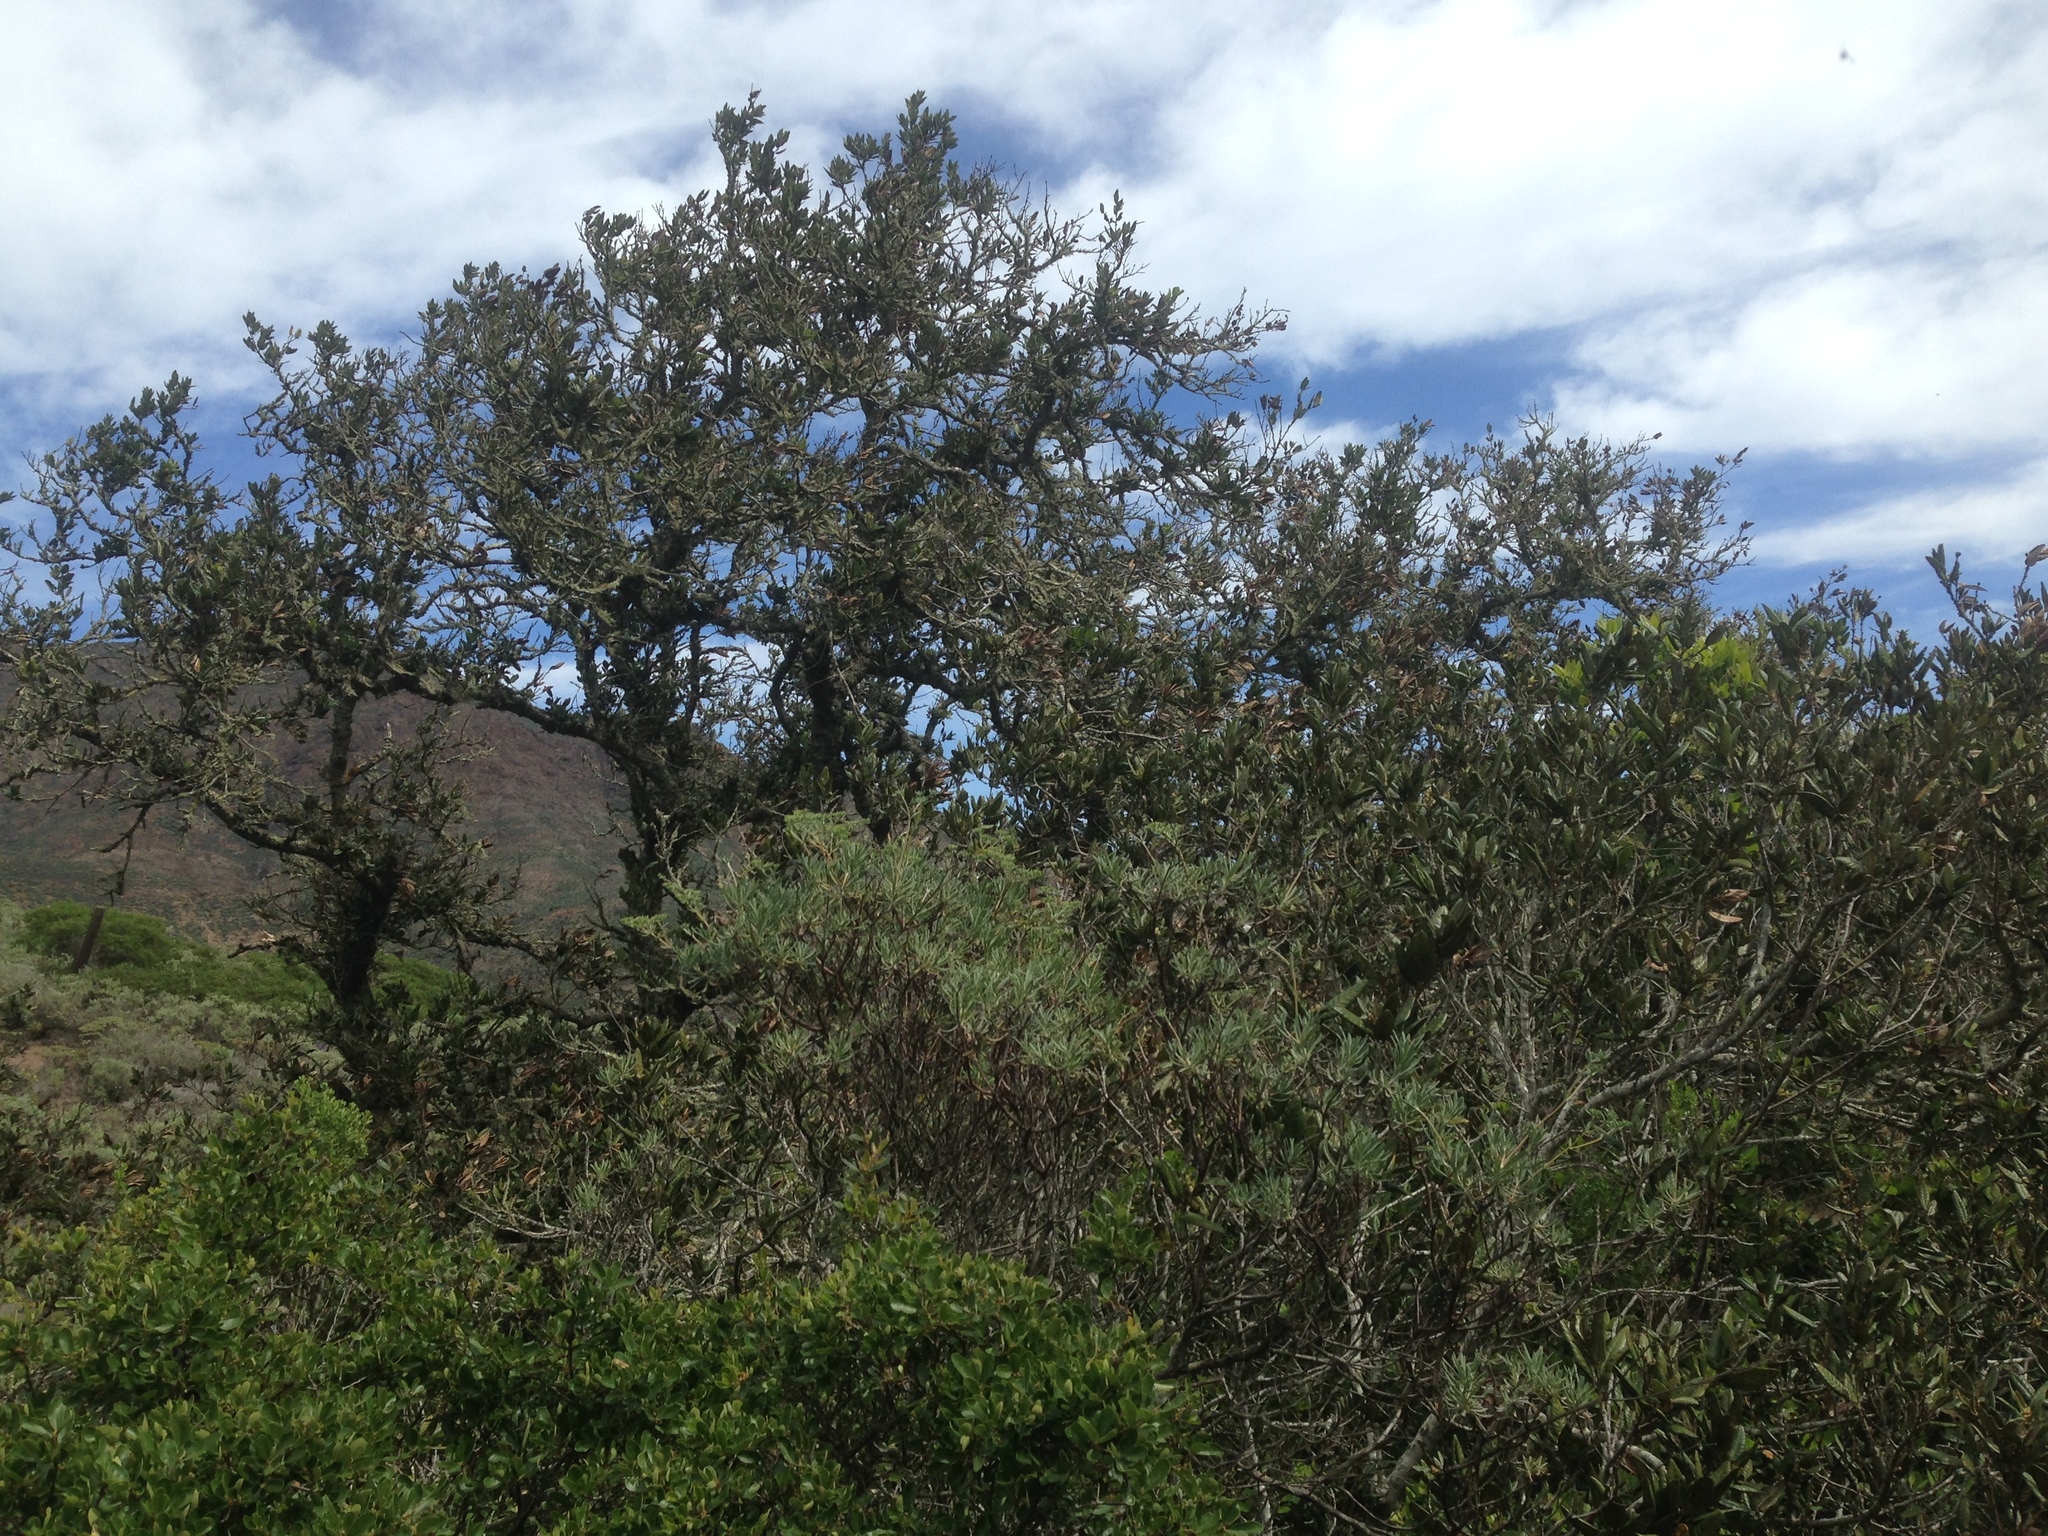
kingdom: Plantae
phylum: Tracheophyta
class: Magnoliopsida
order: Fagales
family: Fagaceae
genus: Quercus
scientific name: Quercus tomentella
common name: Island oak
